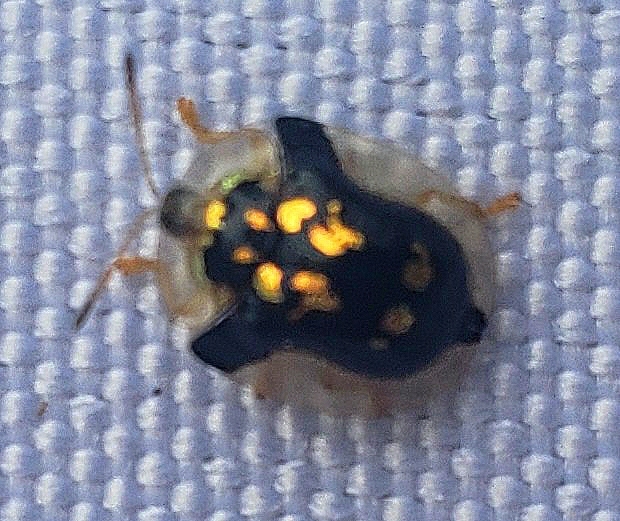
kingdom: Animalia
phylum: Arthropoda
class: Insecta
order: Coleoptera
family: Chrysomelidae
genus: Deloyala
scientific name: Deloyala guttata
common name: Mottled tortoise beetle
